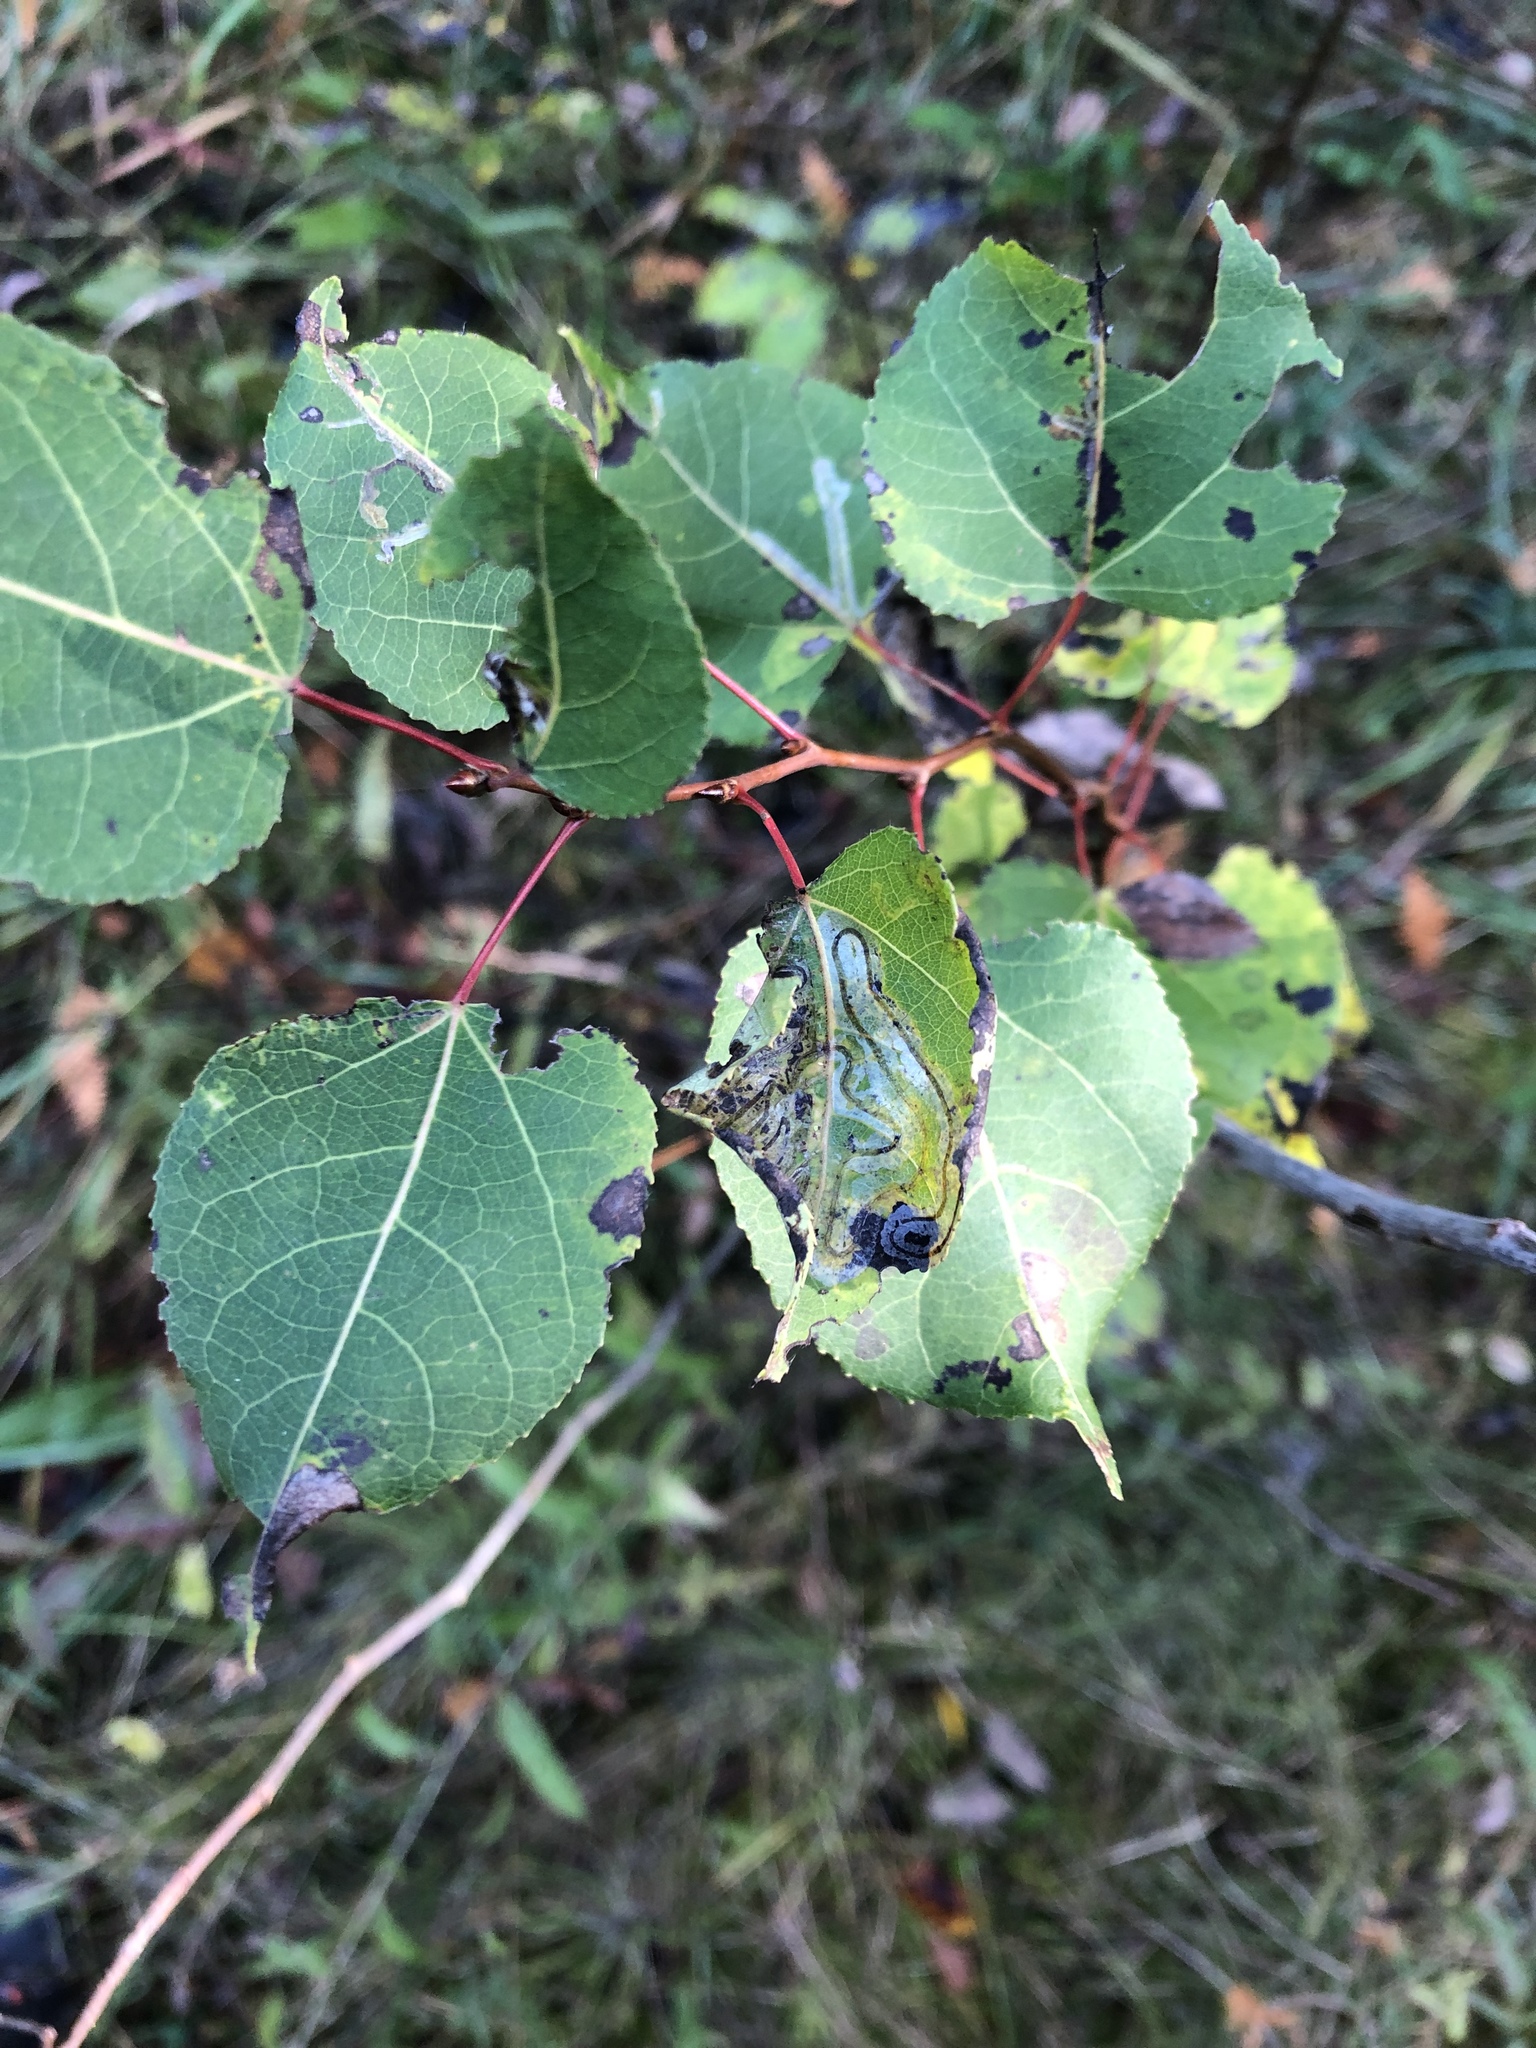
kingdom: Animalia
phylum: Arthropoda
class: Insecta
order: Lepidoptera
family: Gracillariidae
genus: Phyllocnistis
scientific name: Phyllocnistis populiella
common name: Aspen serpentine leafminer moth
